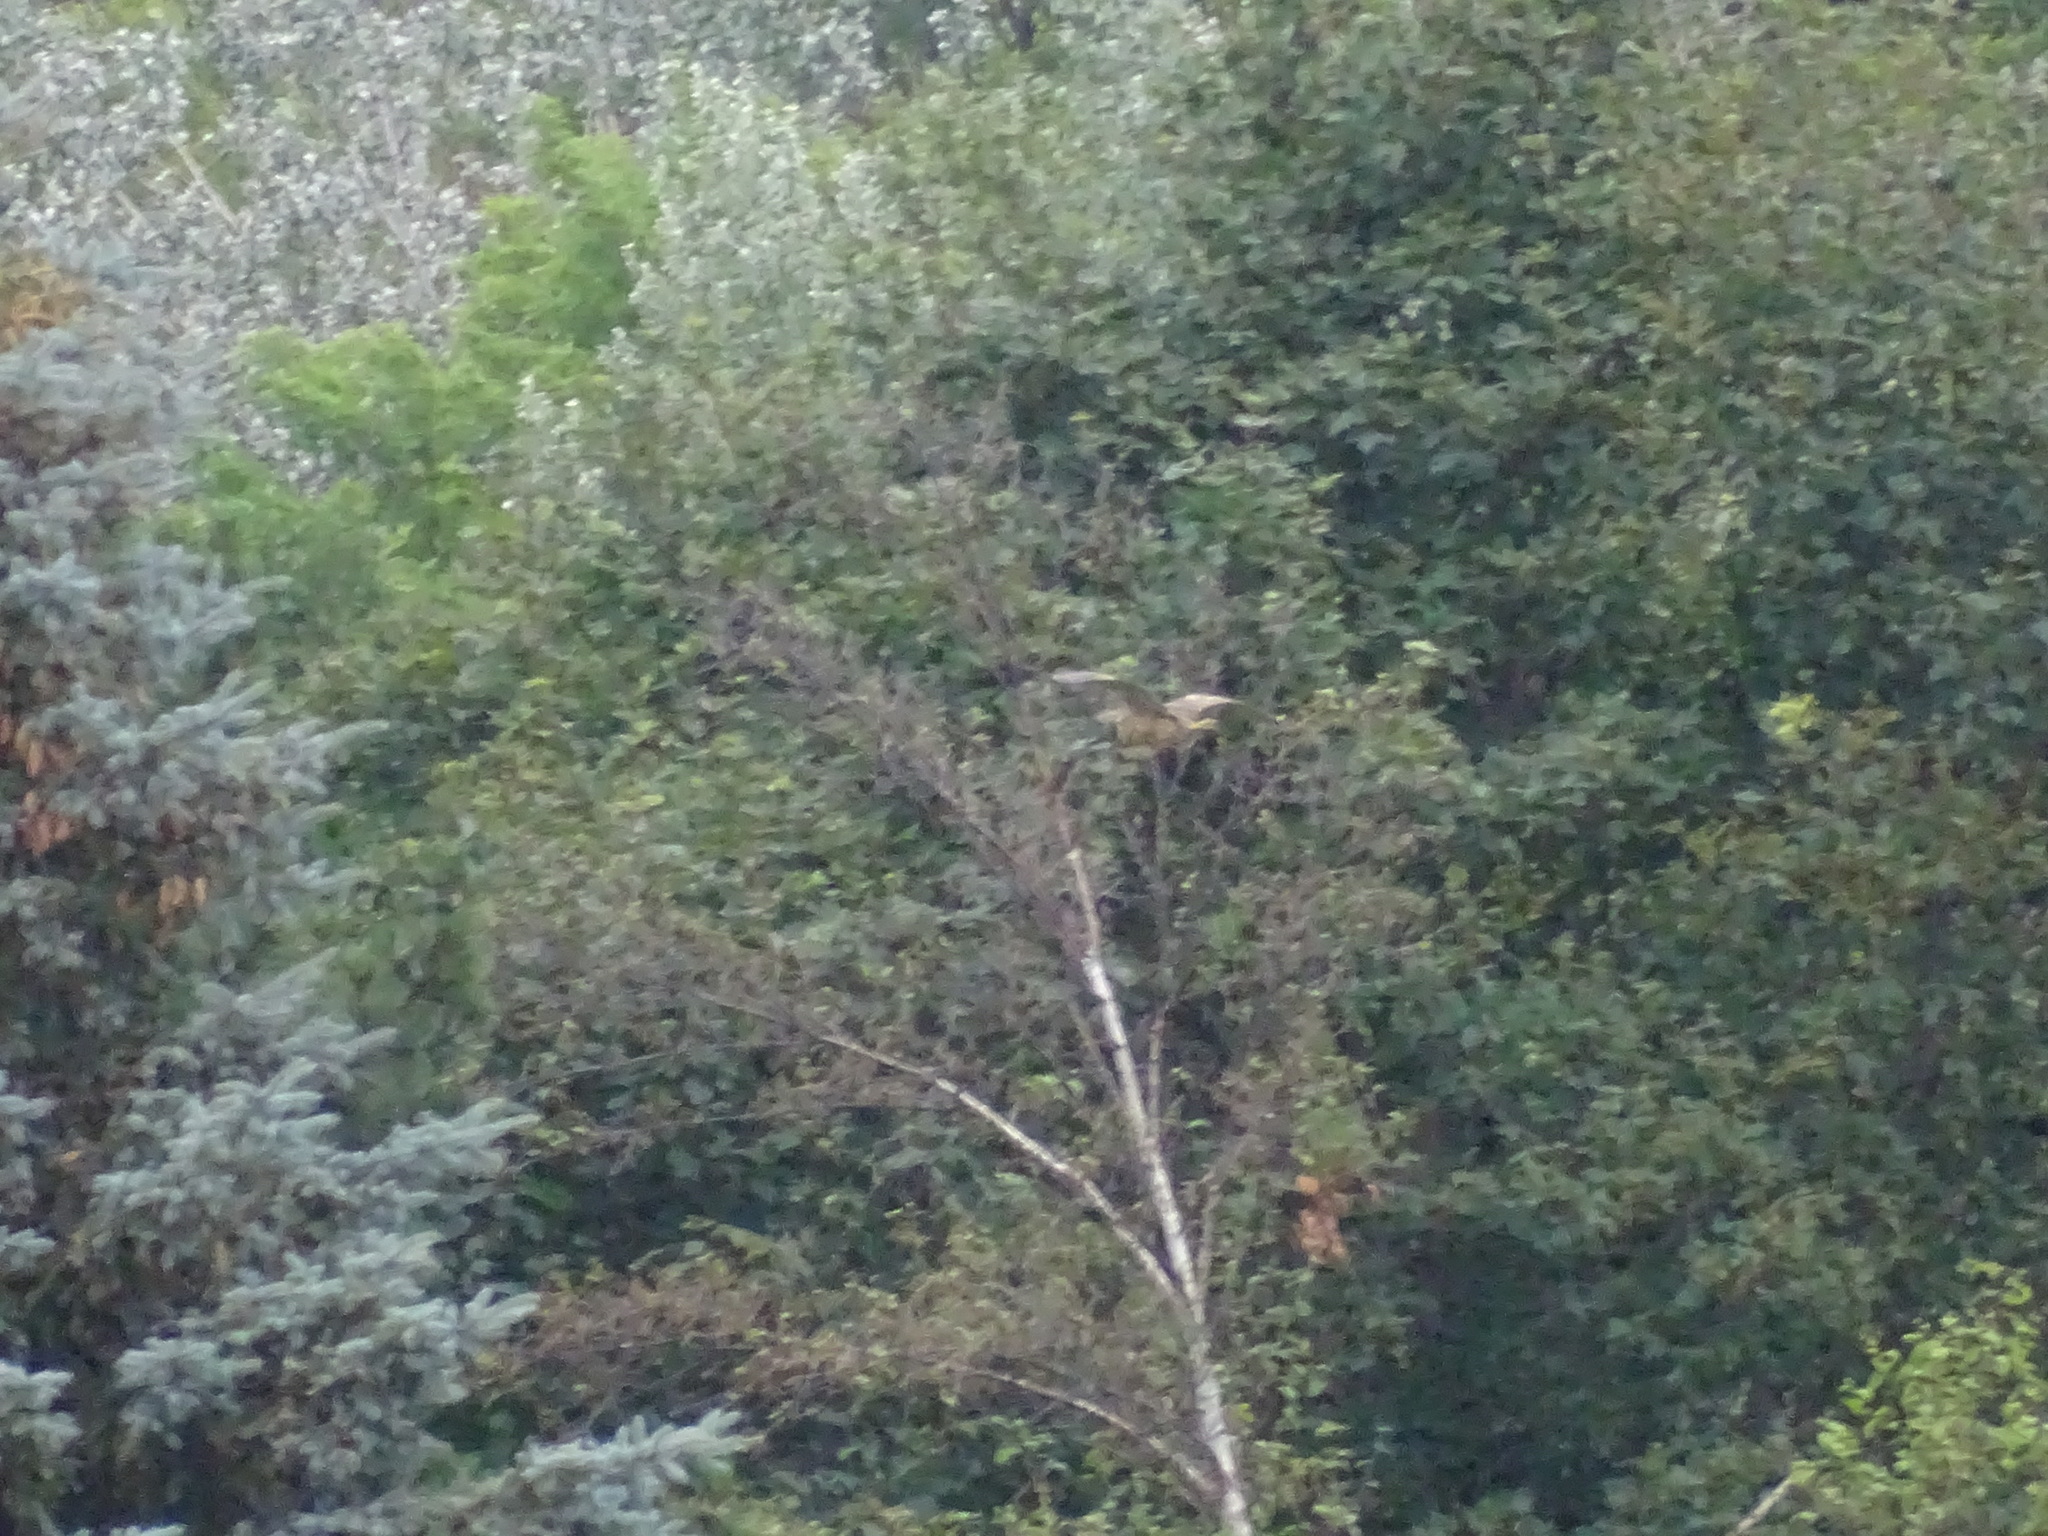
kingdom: Animalia
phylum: Chordata
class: Aves
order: Pelecaniformes
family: Ardeidae
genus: Botaurus
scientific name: Botaurus lentiginosus
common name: American bittern
